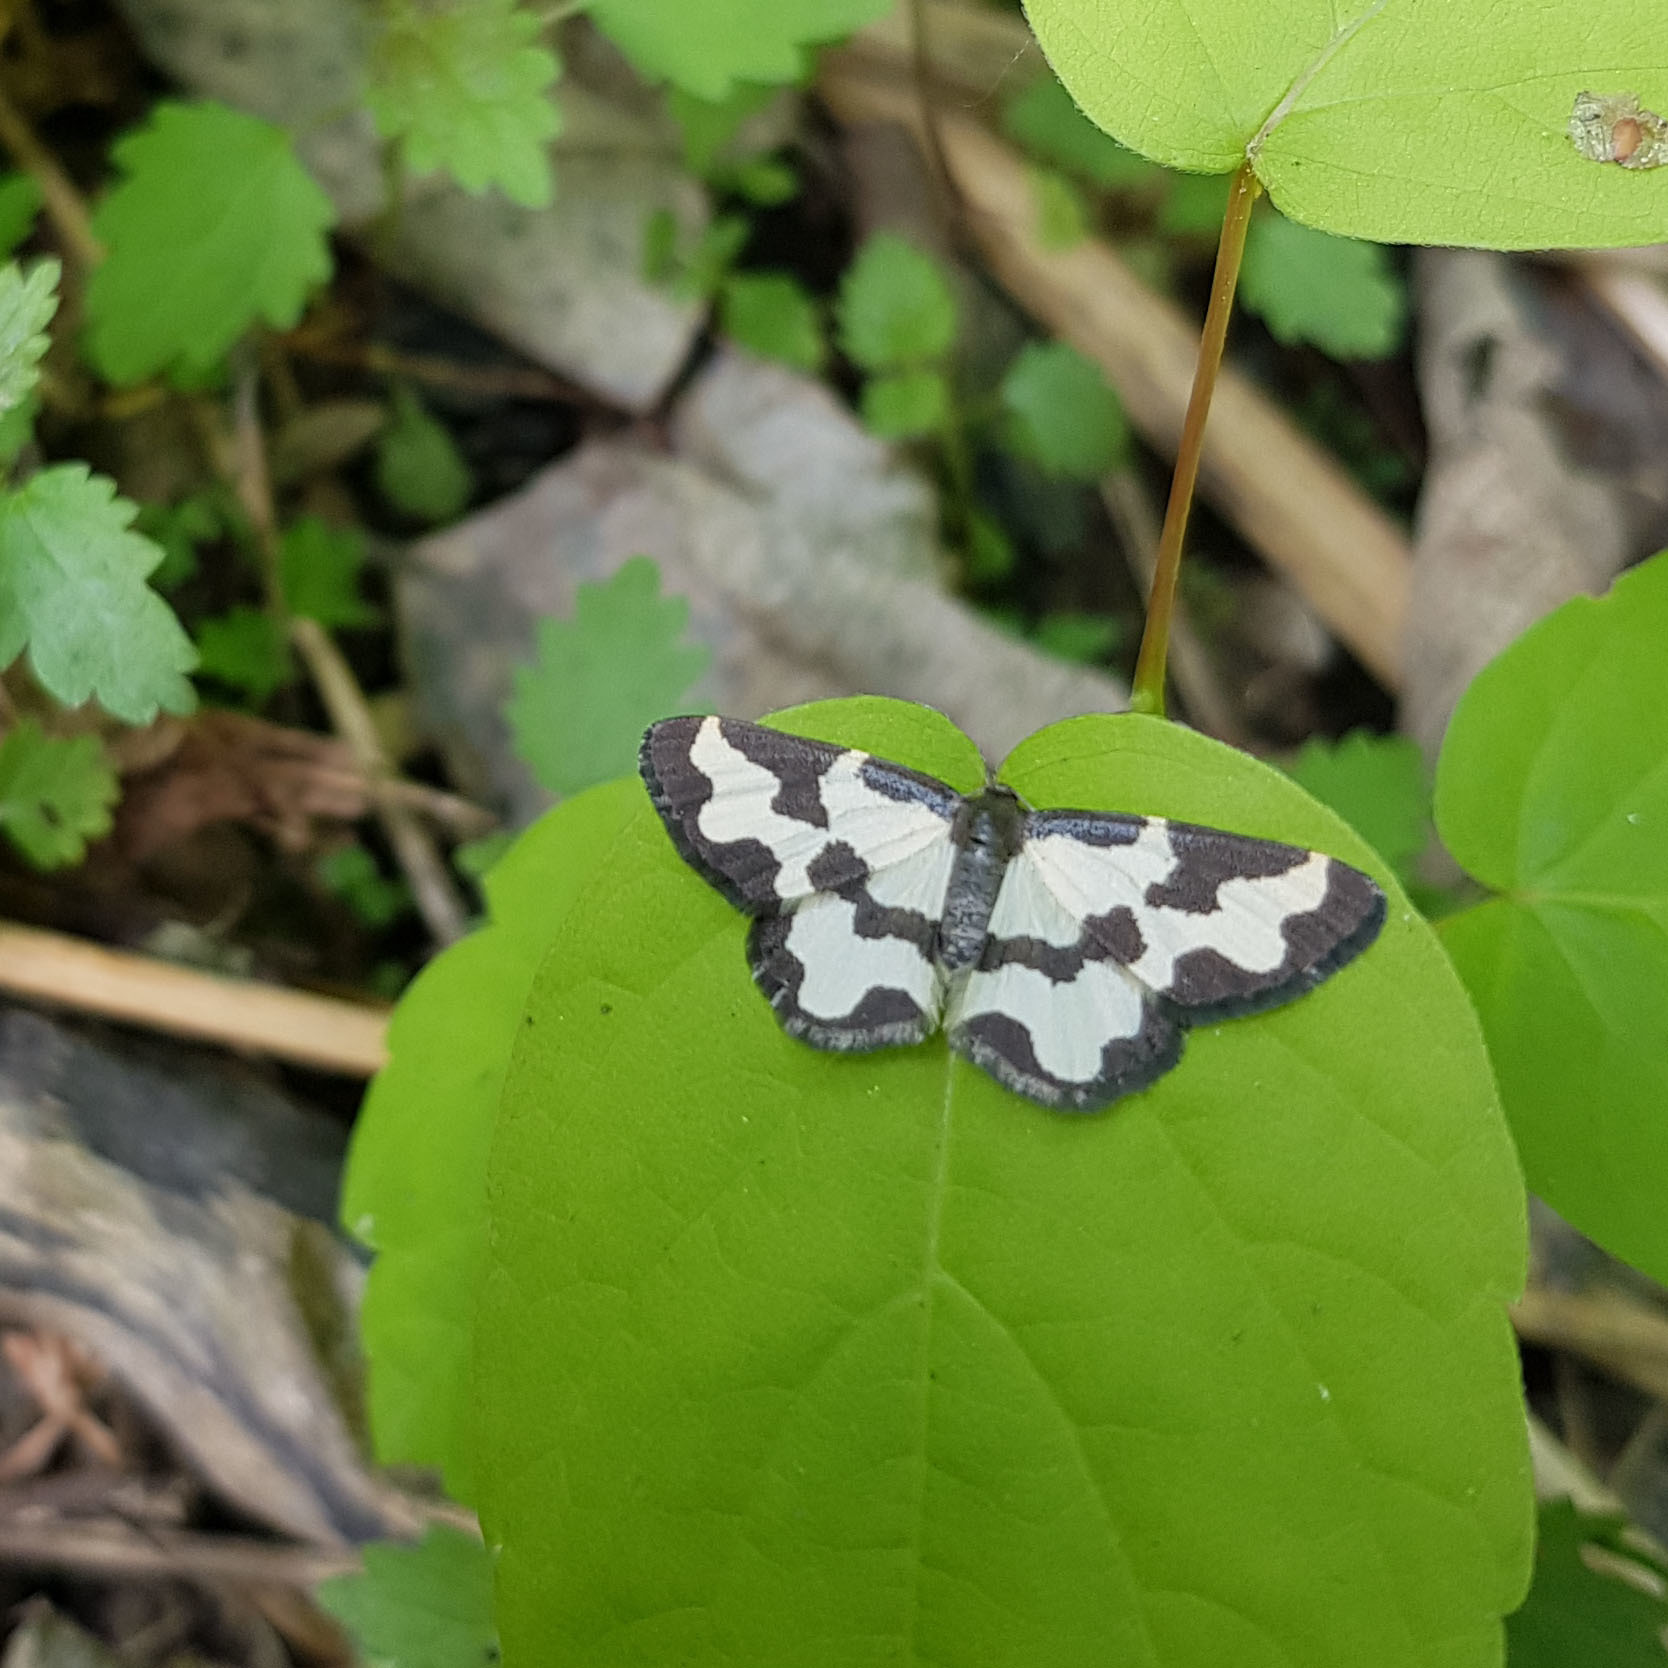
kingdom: Animalia
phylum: Arthropoda
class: Insecta
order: Lepidoptera
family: Geometridae
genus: Lomaspilis
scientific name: Lomaspilis marginata
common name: Clouded border
